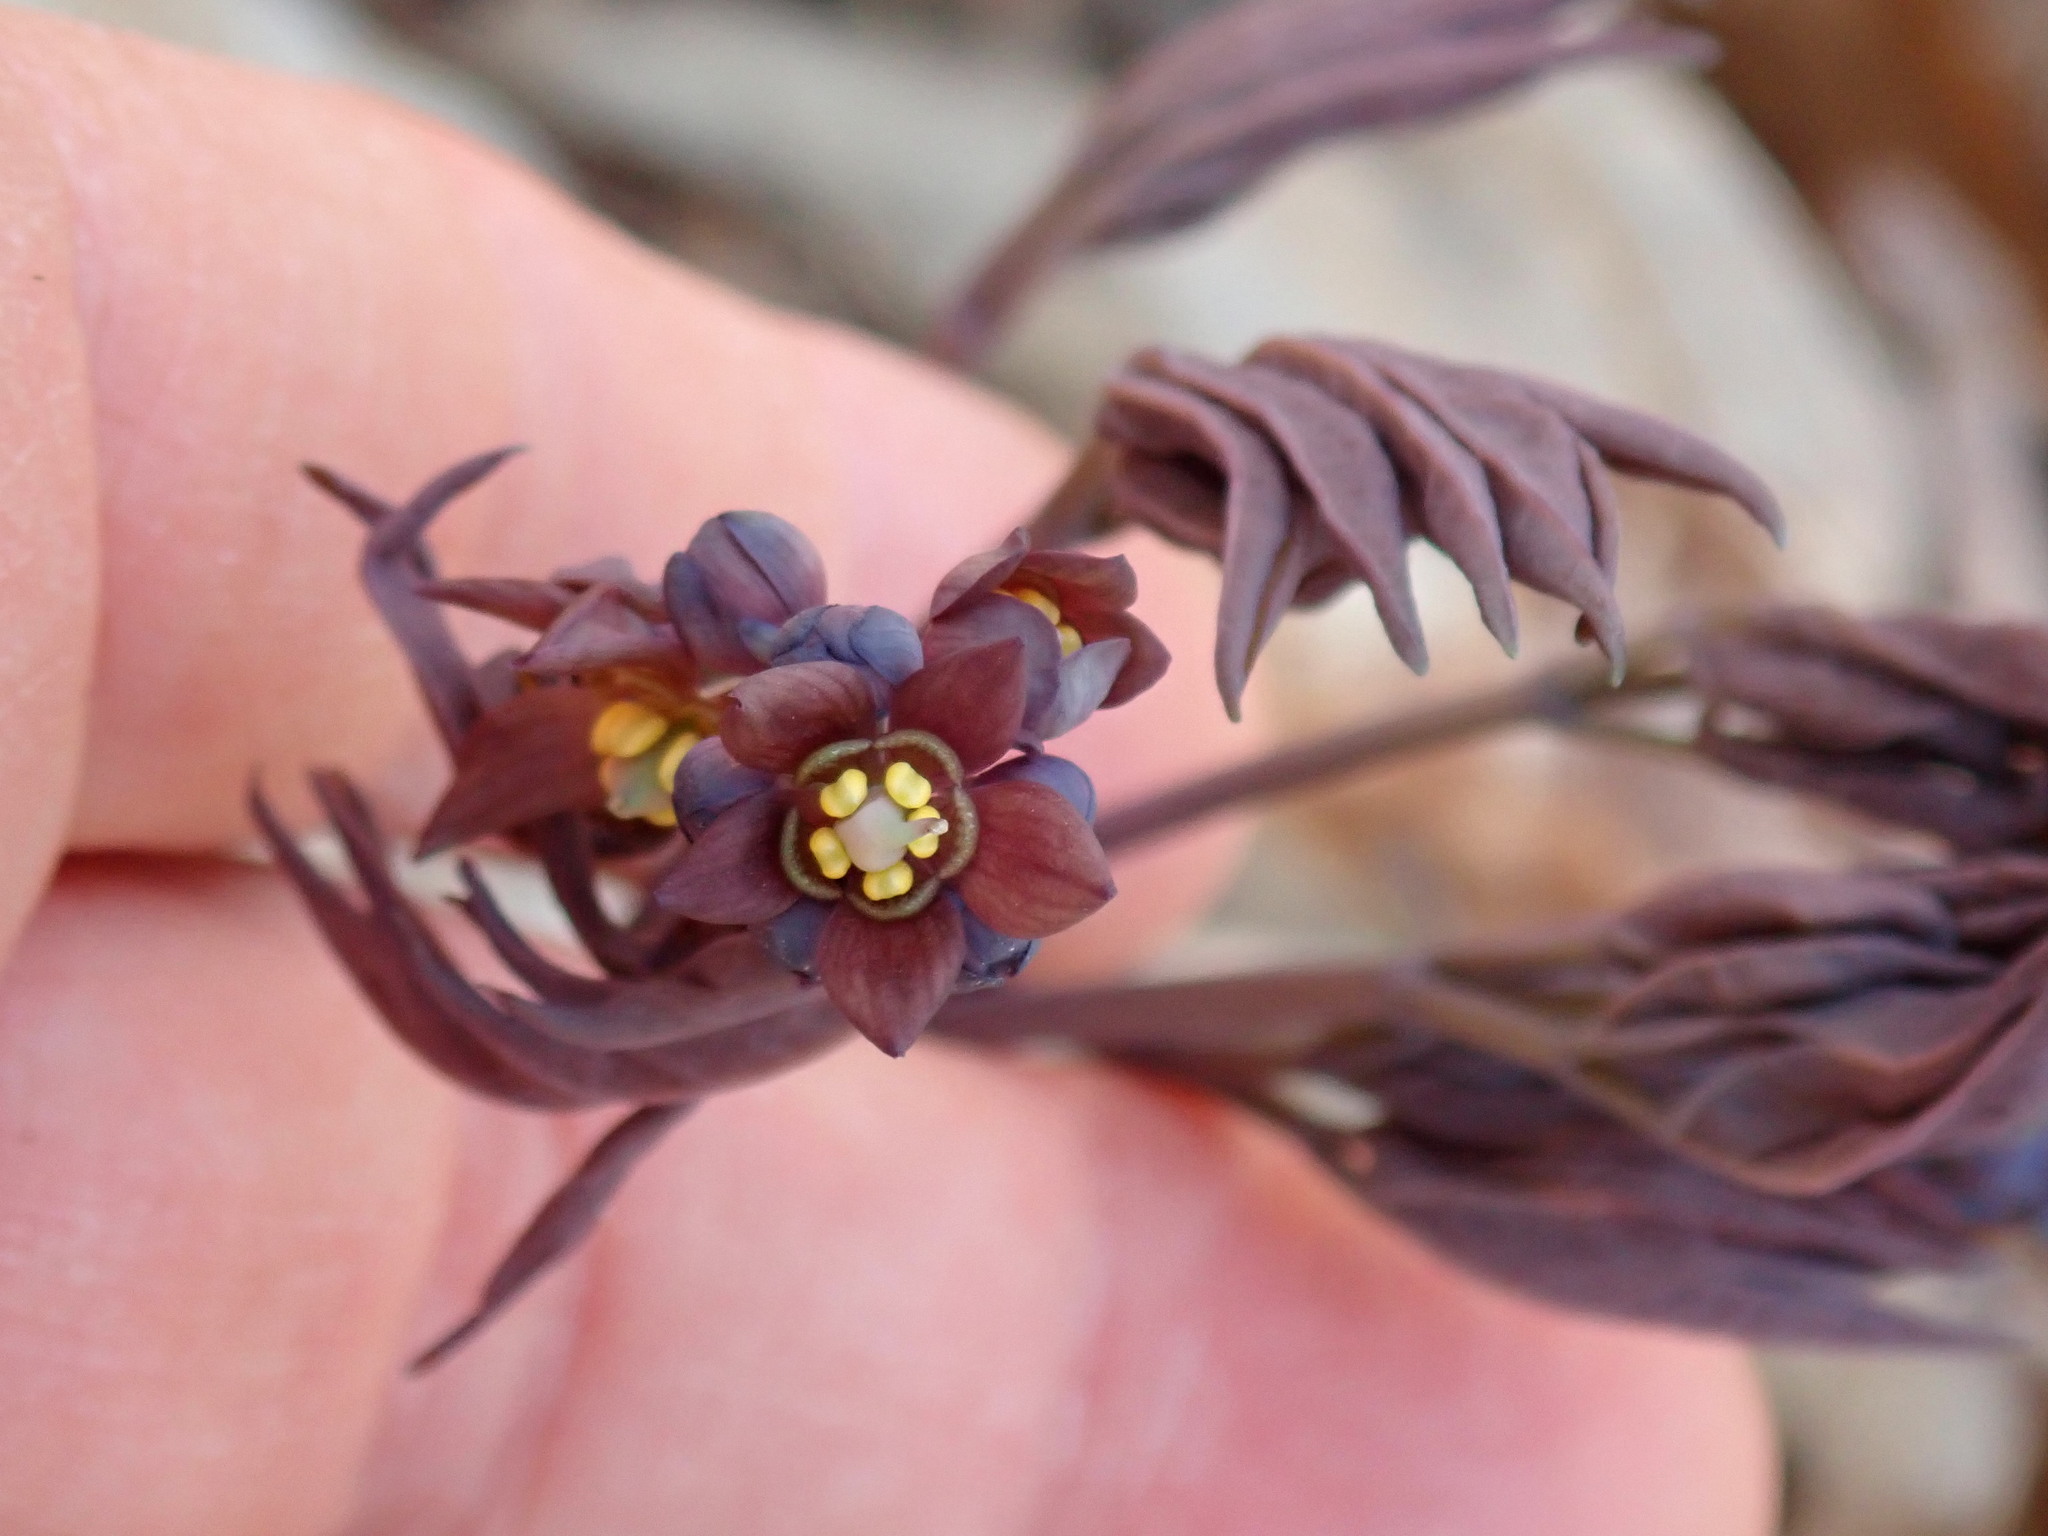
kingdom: Plantae
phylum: Tracheophyta
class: Magnoliopsida
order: Ranunculales
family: Berberidaceae
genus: Caulophyllum
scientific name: Caulophyllum giganteum
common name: Blue cohosh
